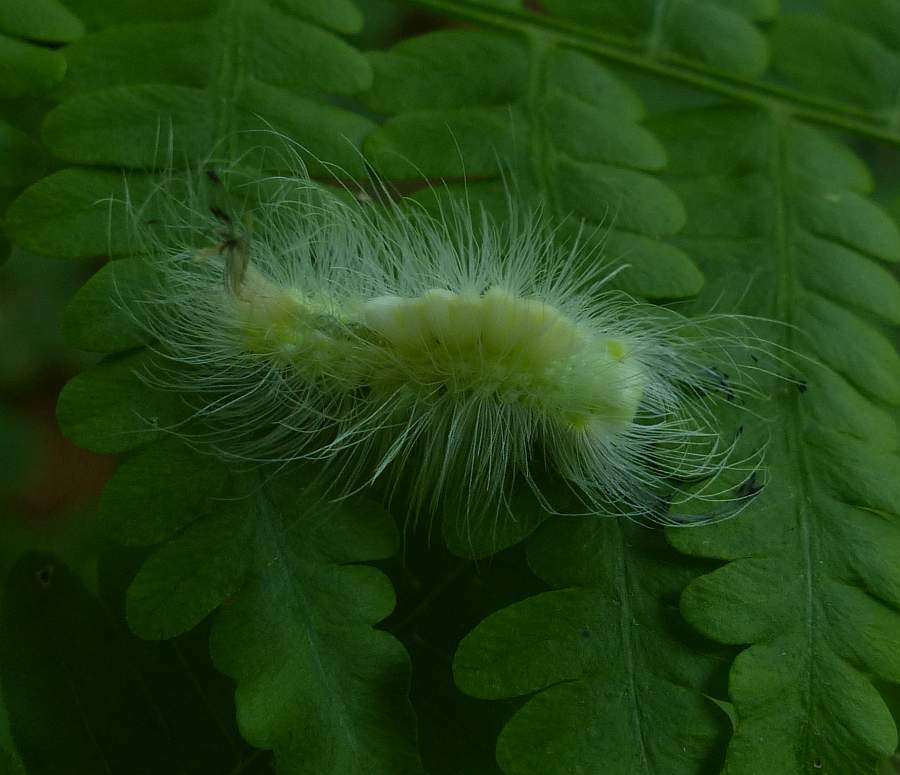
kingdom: Animalia
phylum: Arthropoda
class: Insecta
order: Lepidoptera
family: Erebidae
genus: Orgyia
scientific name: Orgyia definita
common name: Definite tussock moth
